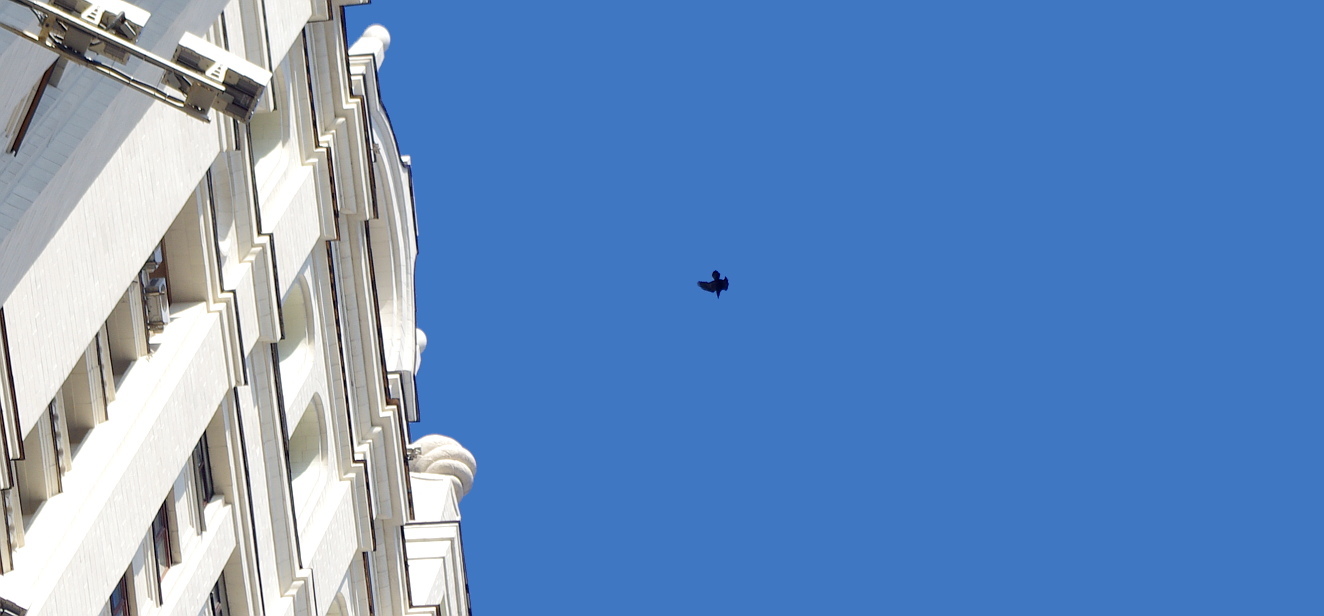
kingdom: Animalia
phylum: Chordata
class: Aves
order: Passeriformes
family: Corvidae
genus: Corvus
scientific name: Corvus corax
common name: Common raven
